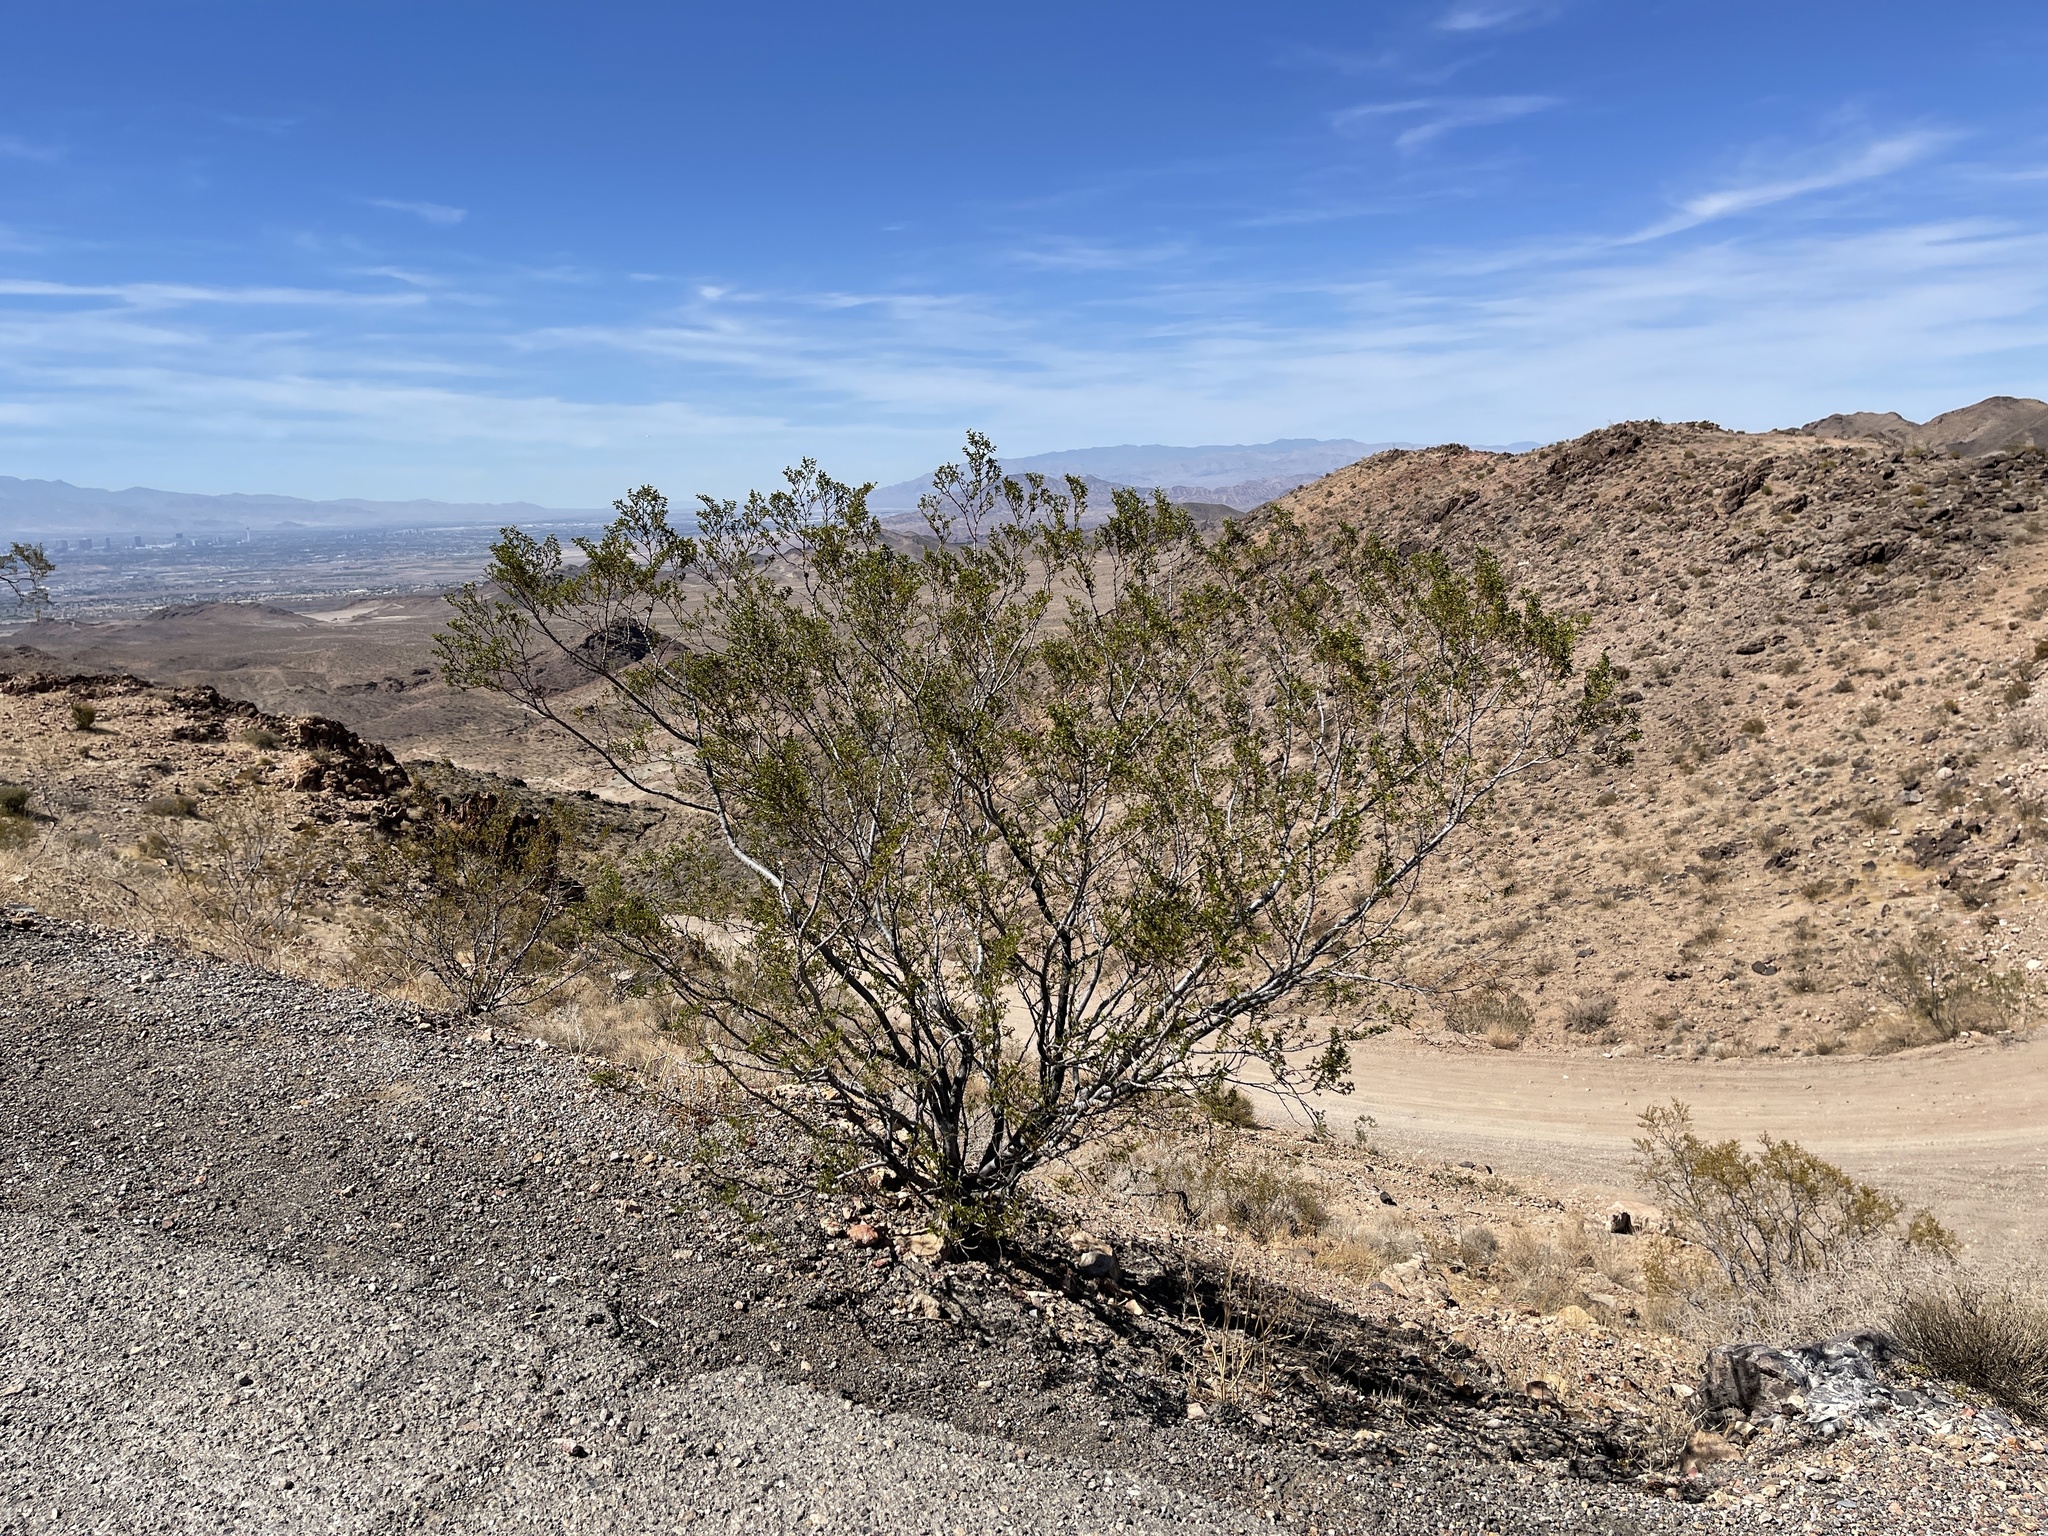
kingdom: Plantae
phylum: Tracheophyta
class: Magnoliopsida
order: Zygophyllales
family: Zygophyllaceae
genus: Larrea
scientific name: Larrea tridentata
